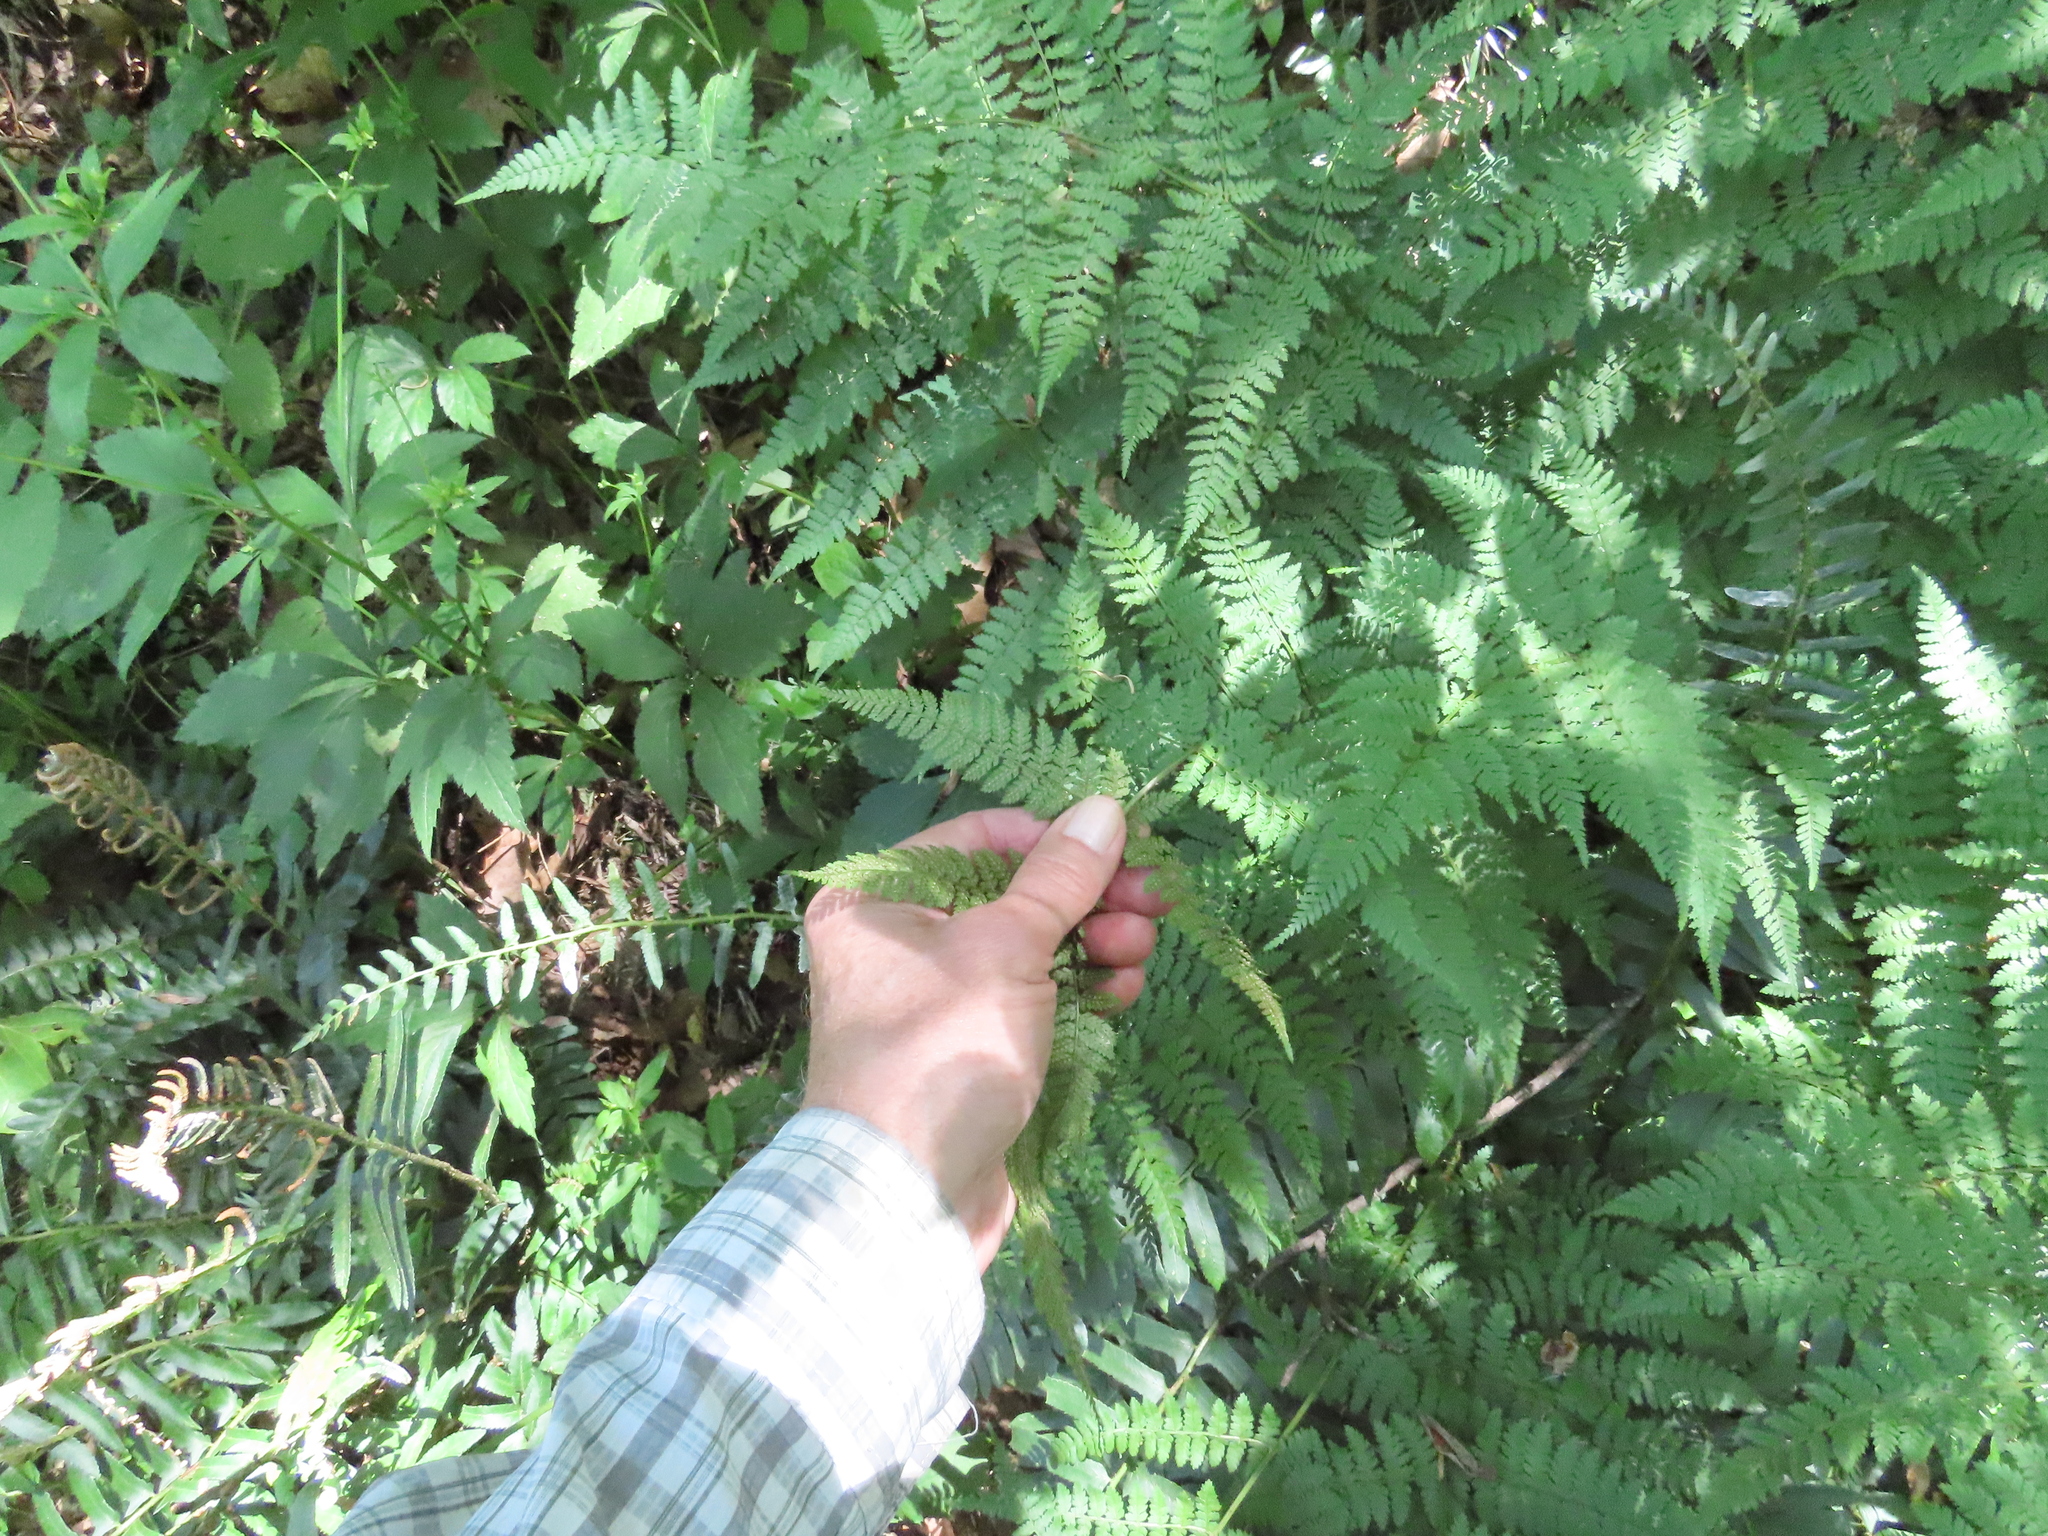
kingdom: Plantae
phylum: Tracheophyta
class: Polypodiopsida
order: Polypodiales
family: Dryopteridaceae
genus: Dryopteris
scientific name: Dryopteris intermedia
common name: Evergreen wood fern
